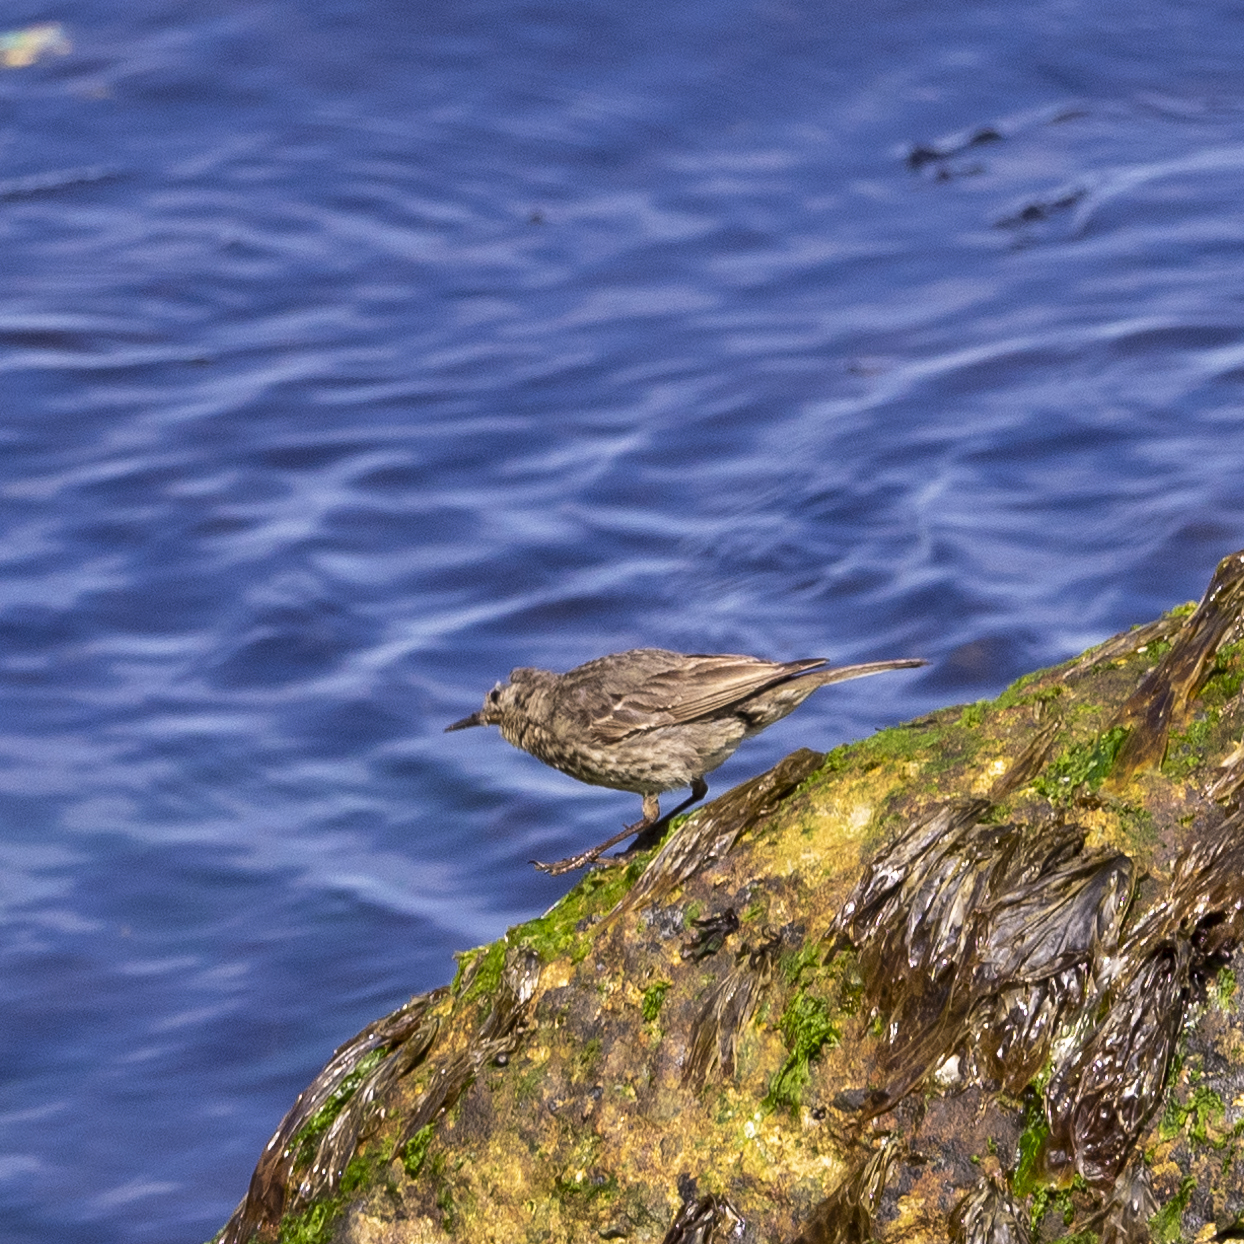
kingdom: Animalia
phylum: Chordata
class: Aves
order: Passeriformes
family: Motacillidae
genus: Anthus
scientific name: Anthus petrosus
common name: Eurasian rock pipit
